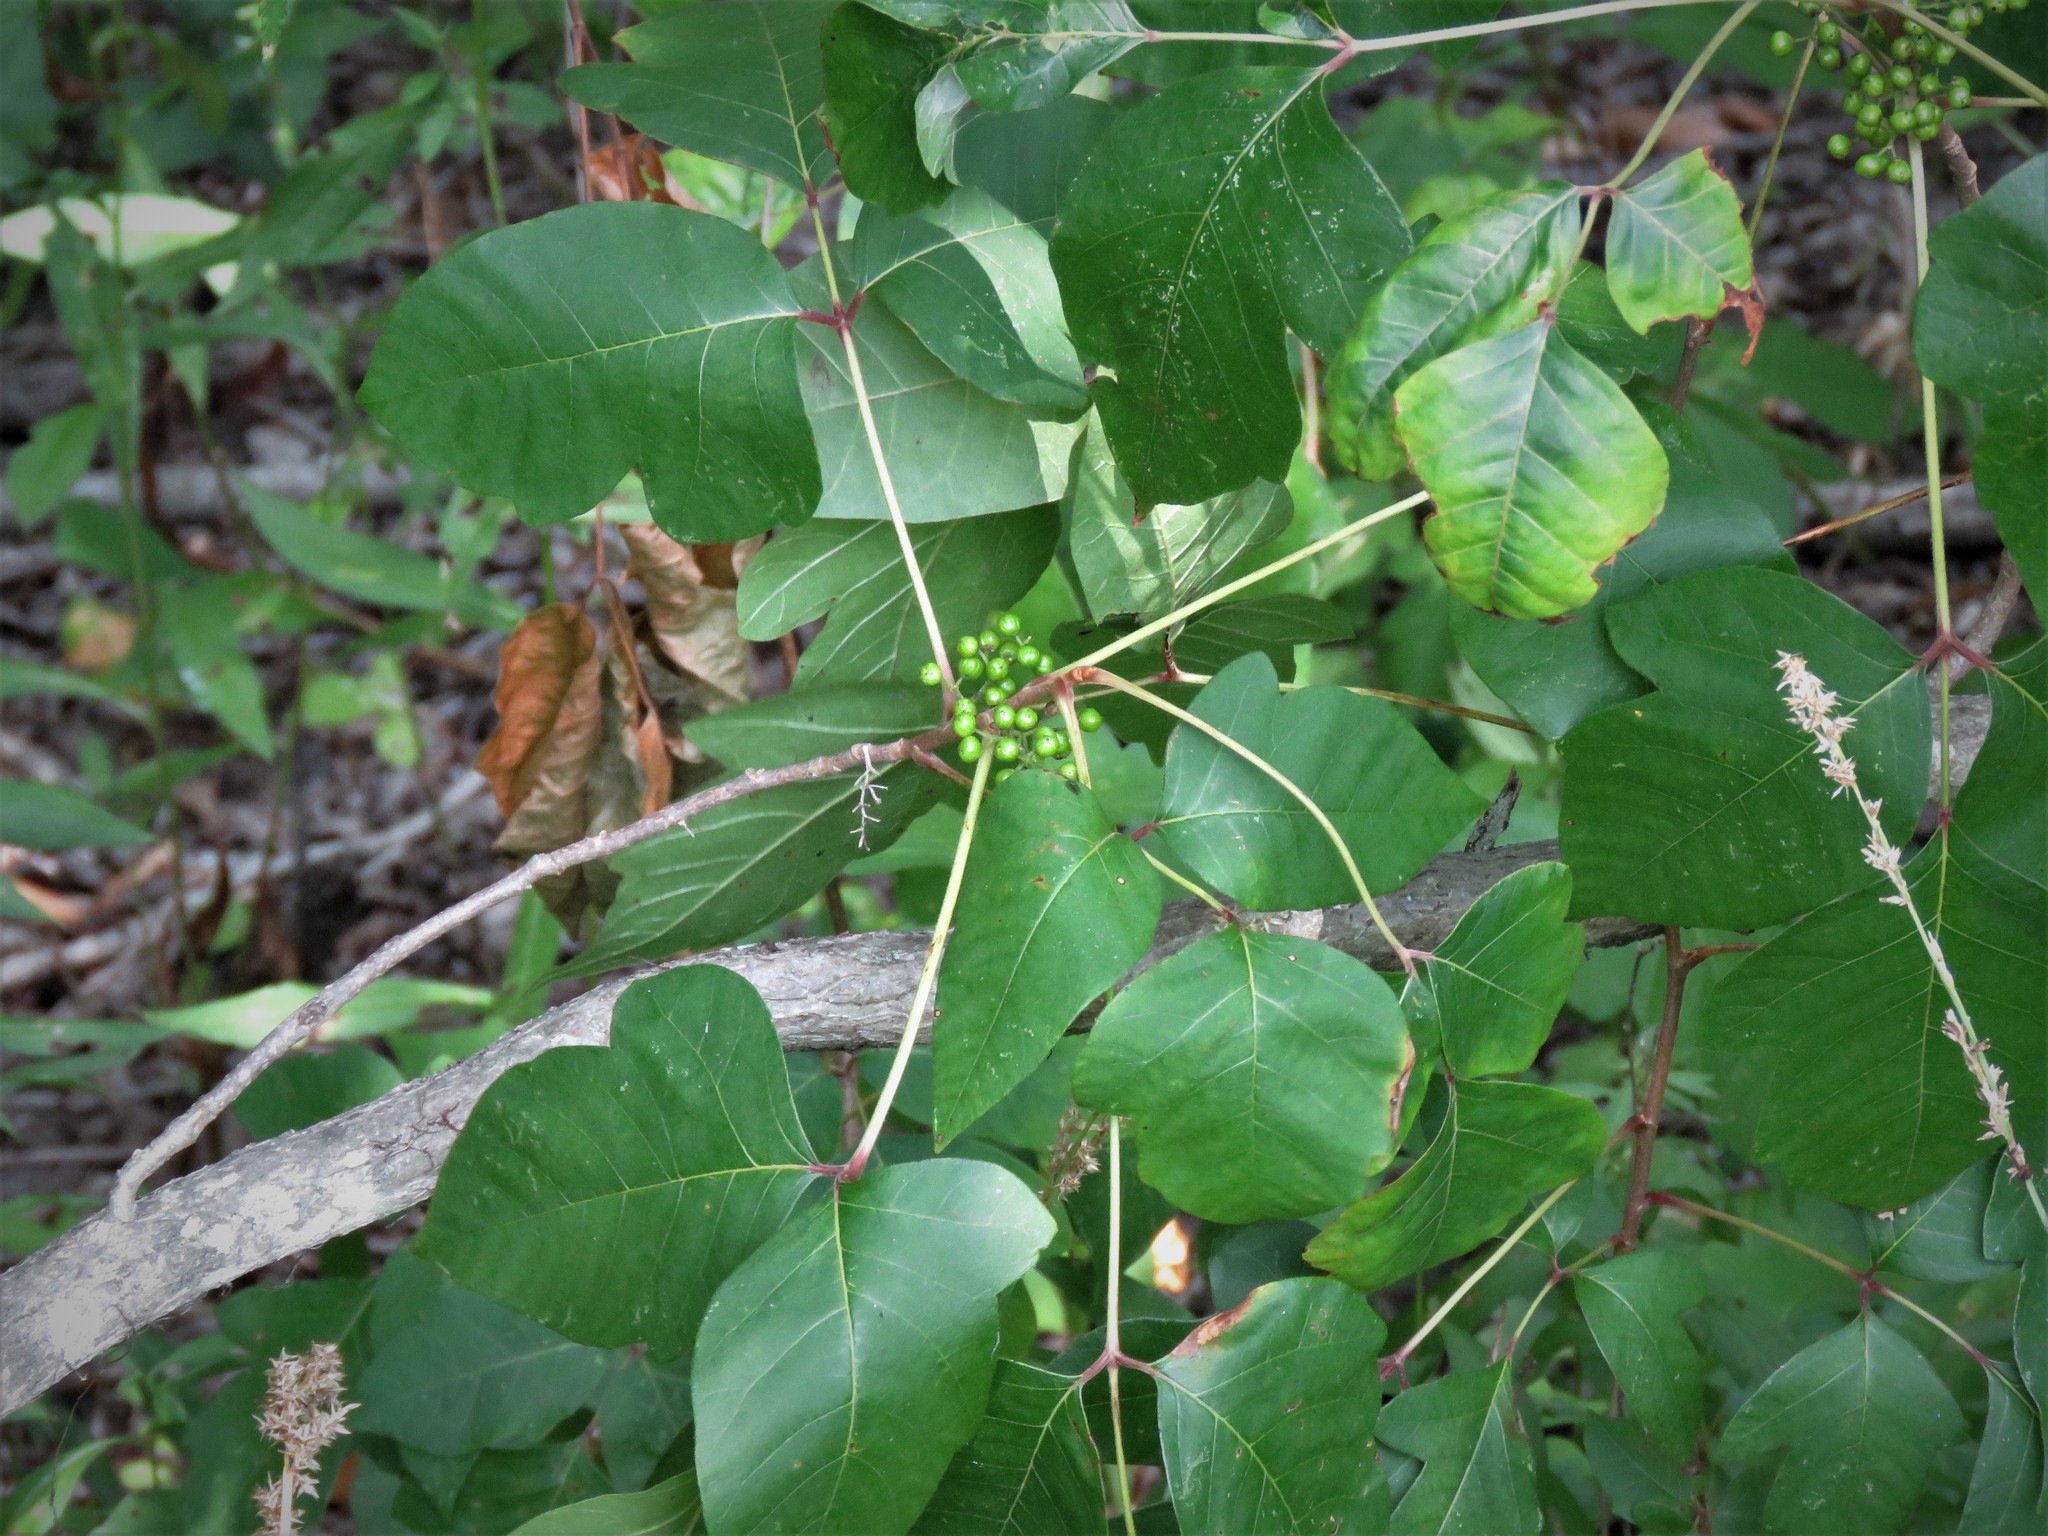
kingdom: Plantae
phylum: Tracheophyta
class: Magnoliopsida
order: Sapindales
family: Anacardiaceae
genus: Toxicodendron
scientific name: Toxicodendron radicans
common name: Poison ivy
